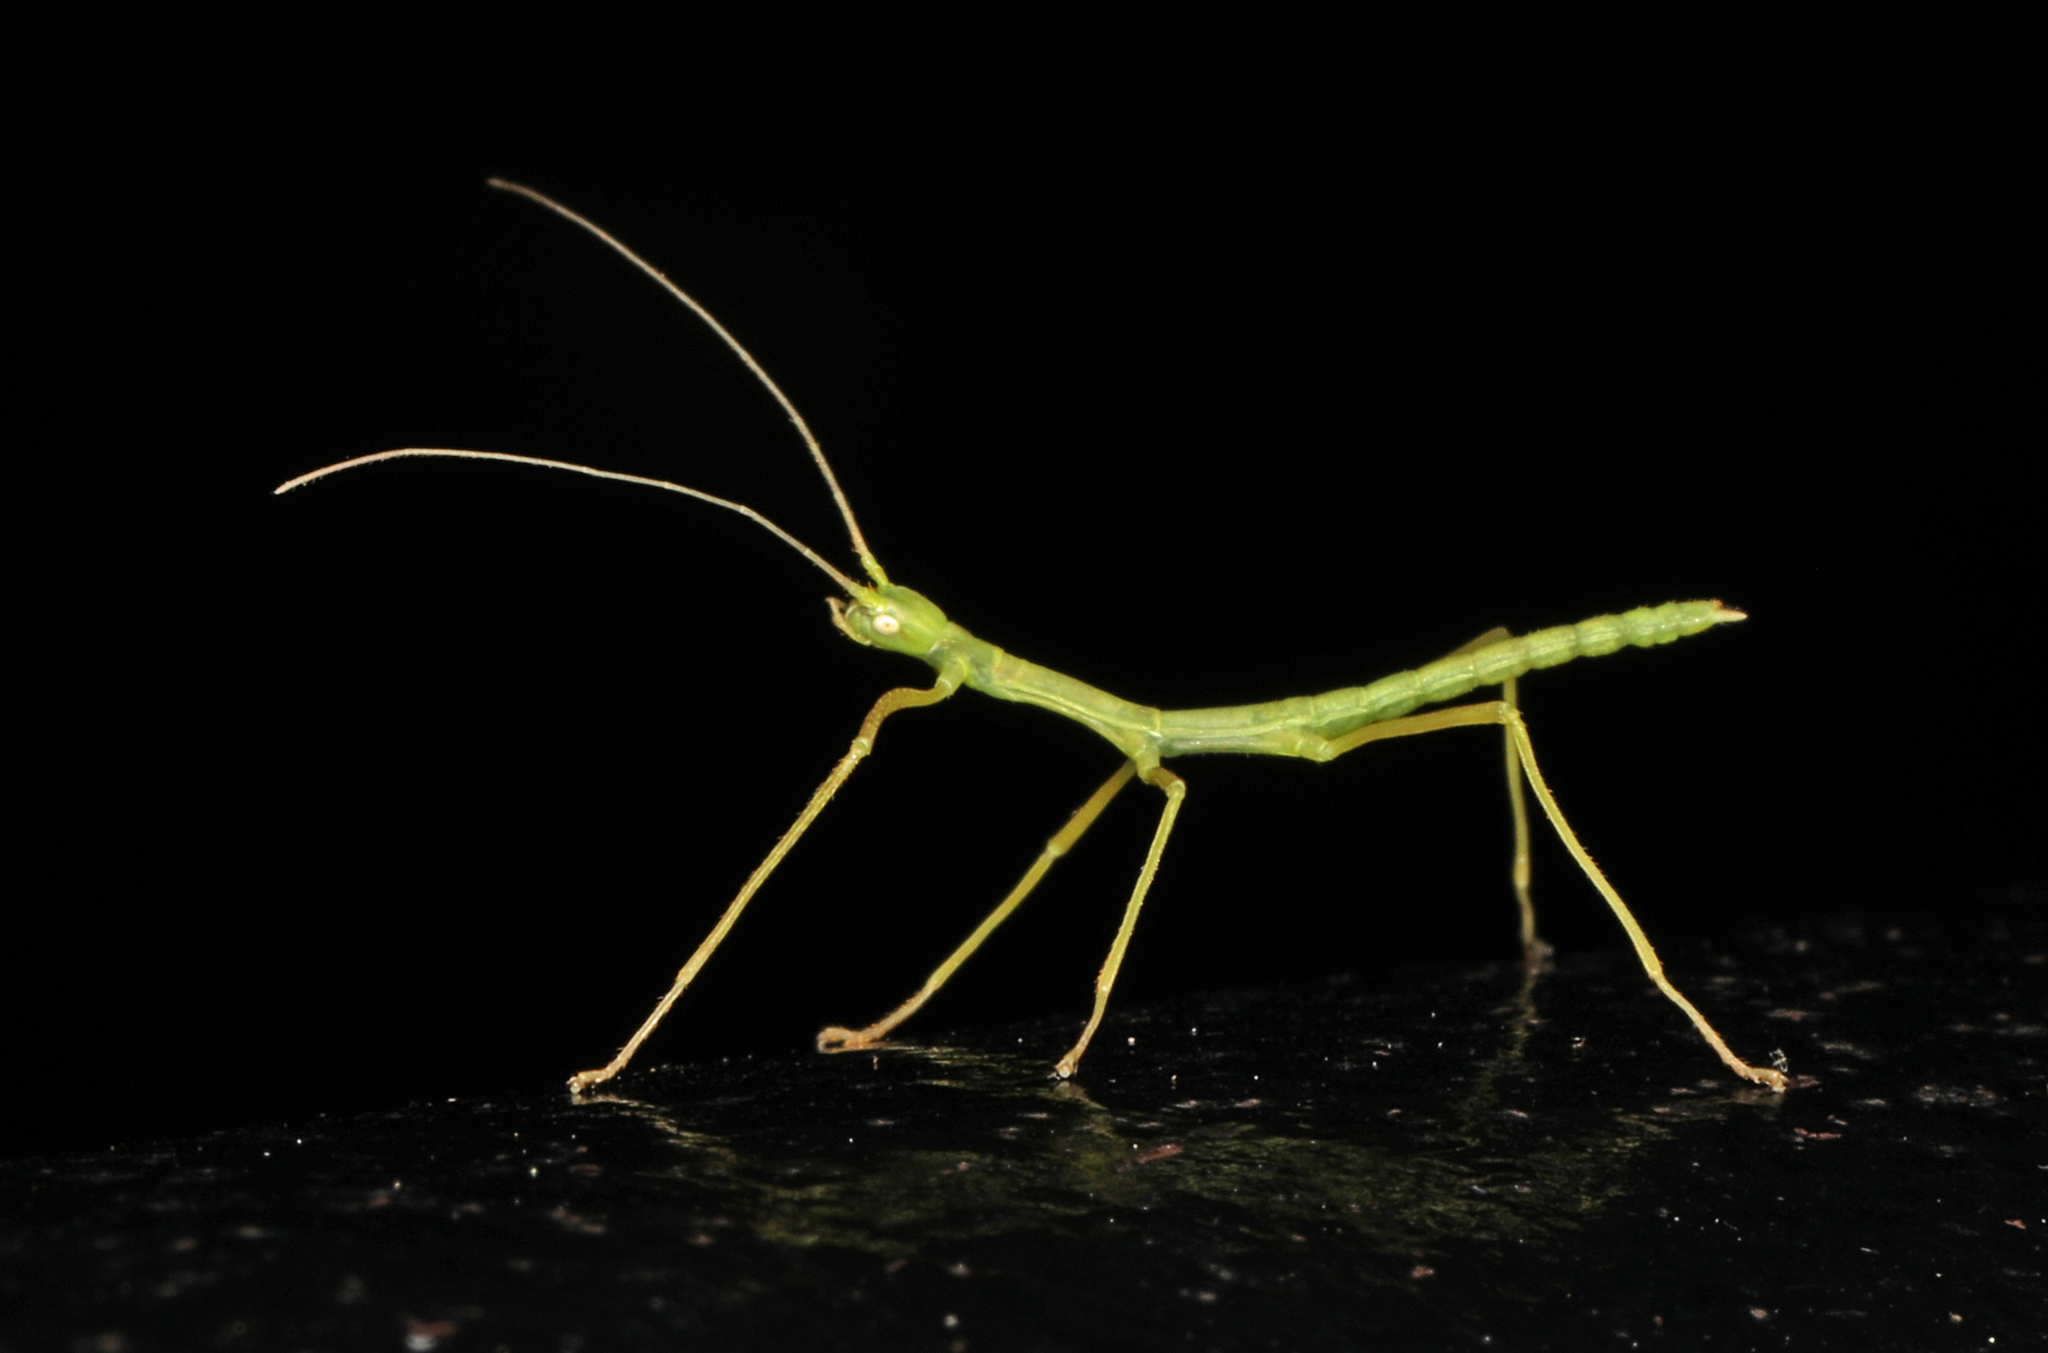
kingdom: Animalia
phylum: Arthropoda
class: Insecta
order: Phasmida
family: Diapheromeridae
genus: Diapheromera
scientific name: Diapheromera femorata
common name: Common american walkingstick
